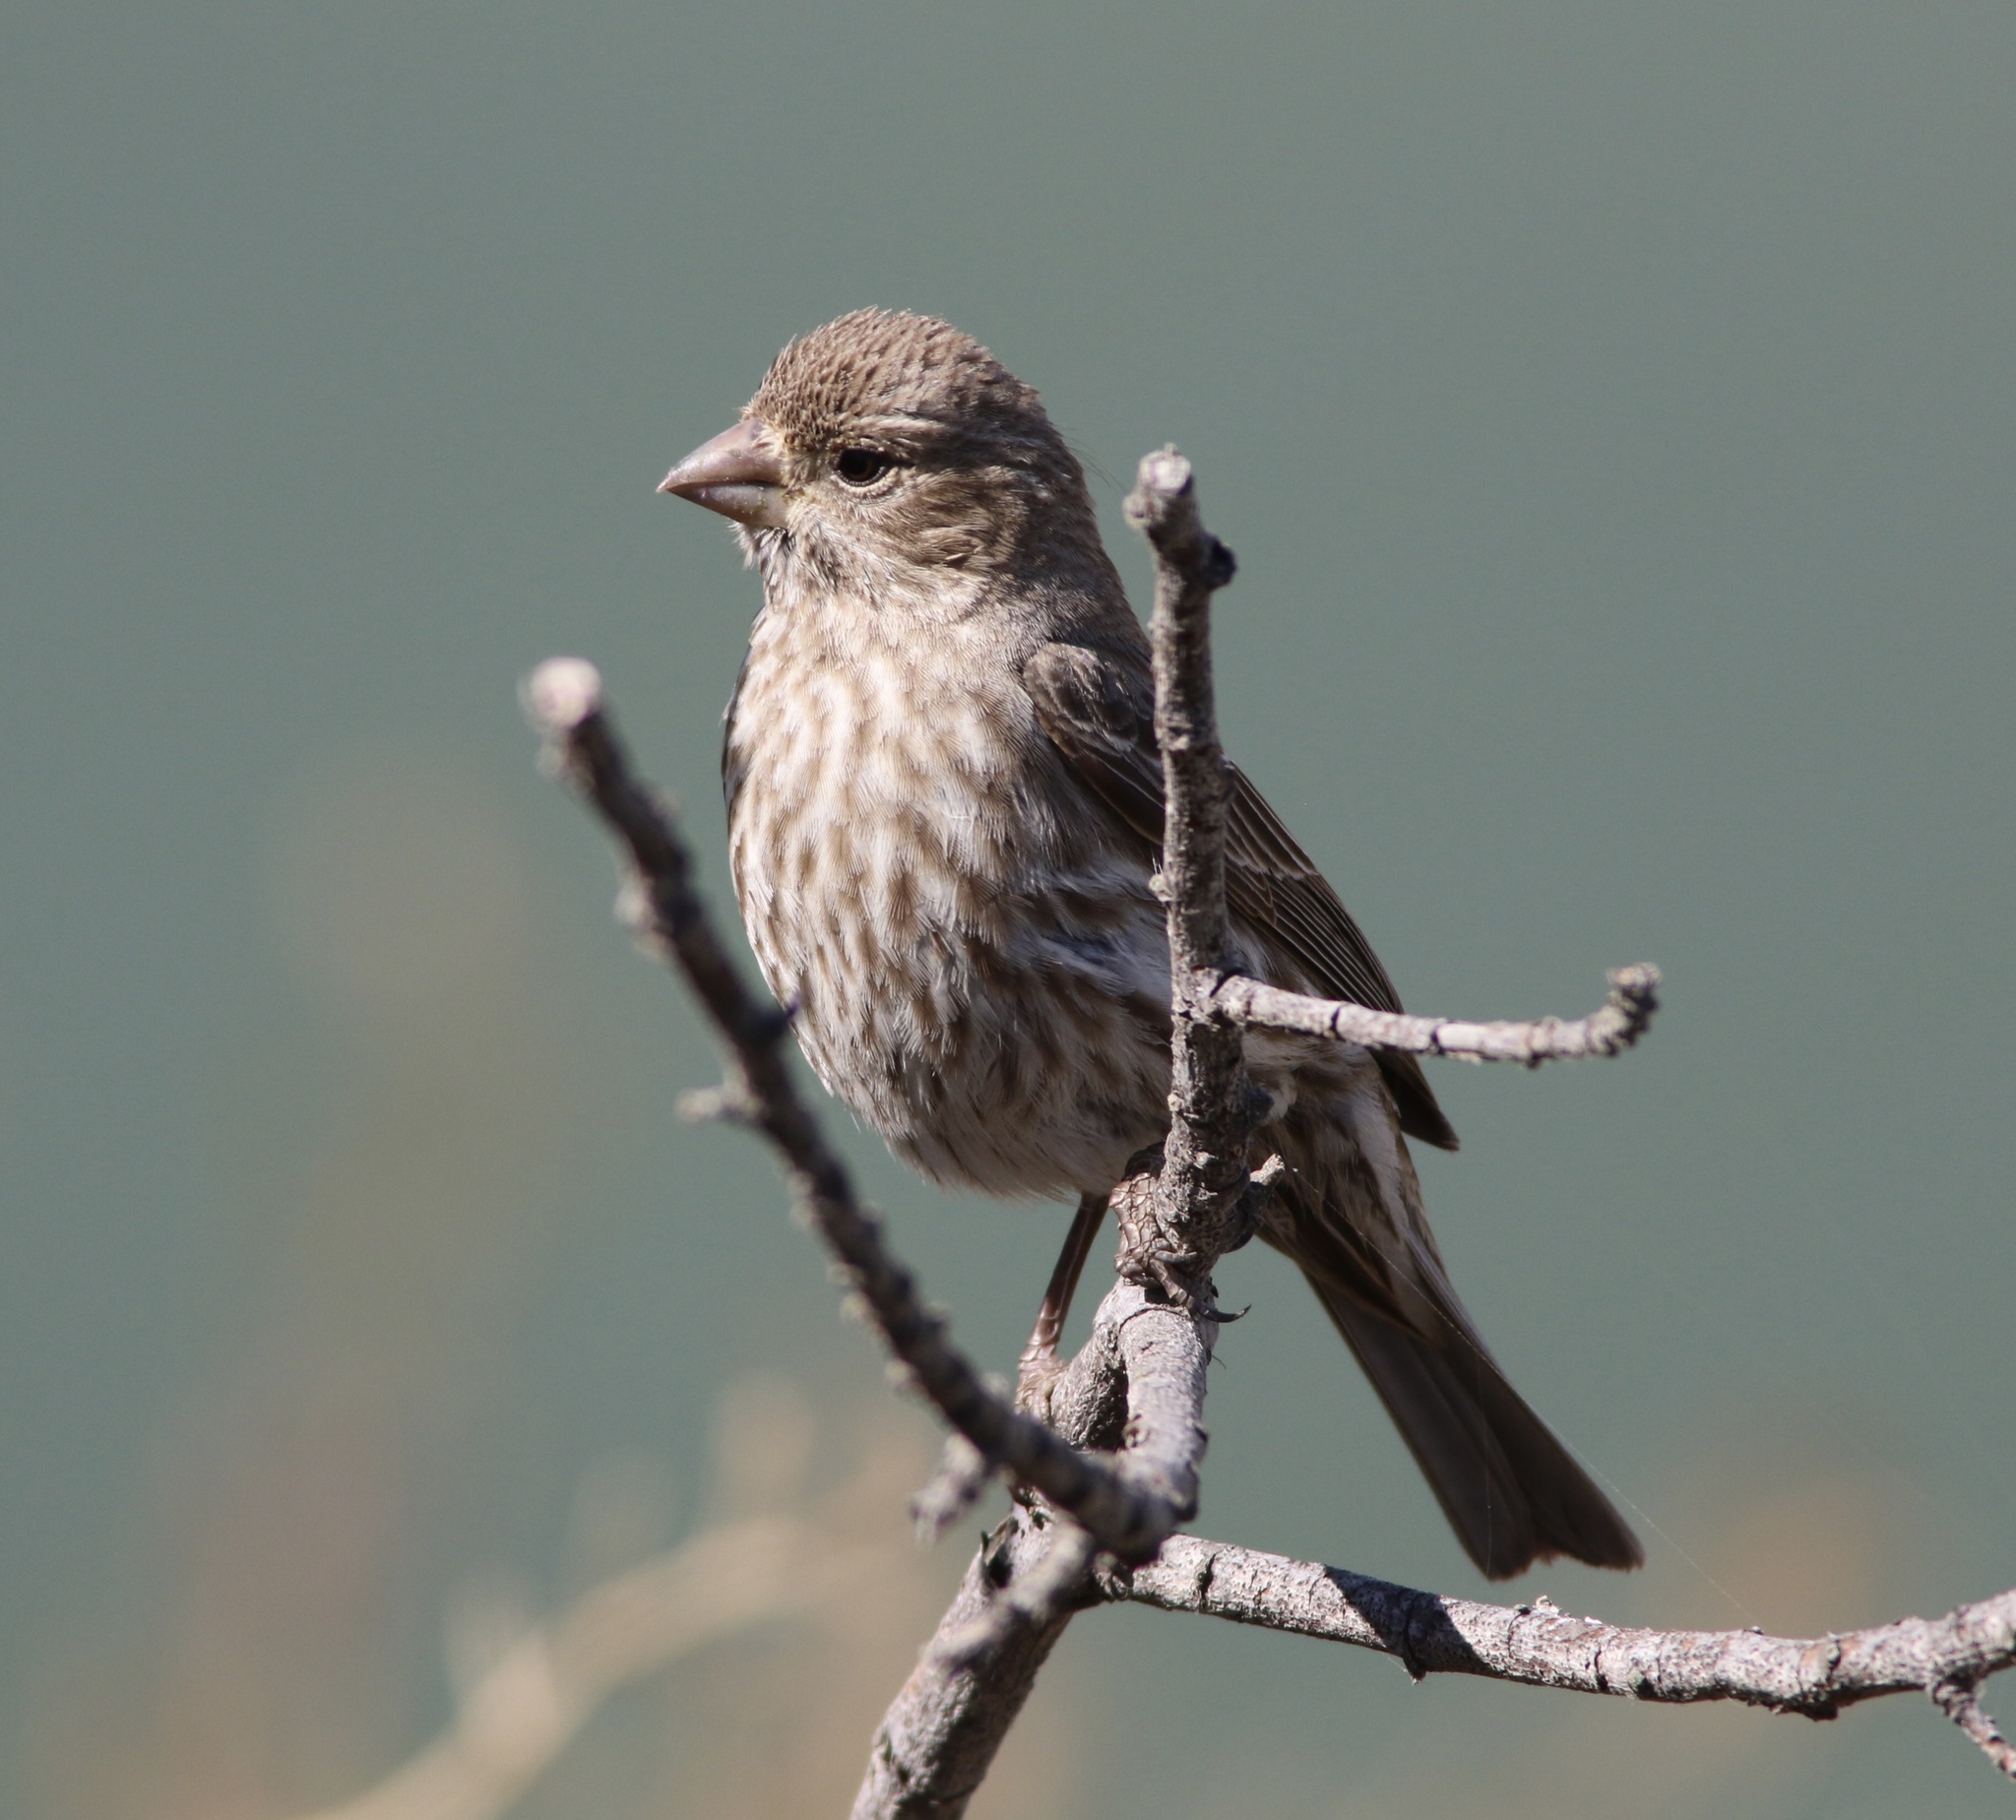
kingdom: Animalia
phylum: Chordata
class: Aves
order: Passeriformes
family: Fringillidae
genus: Haemorhous
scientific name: Haemorhous mexicanus
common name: House finch
